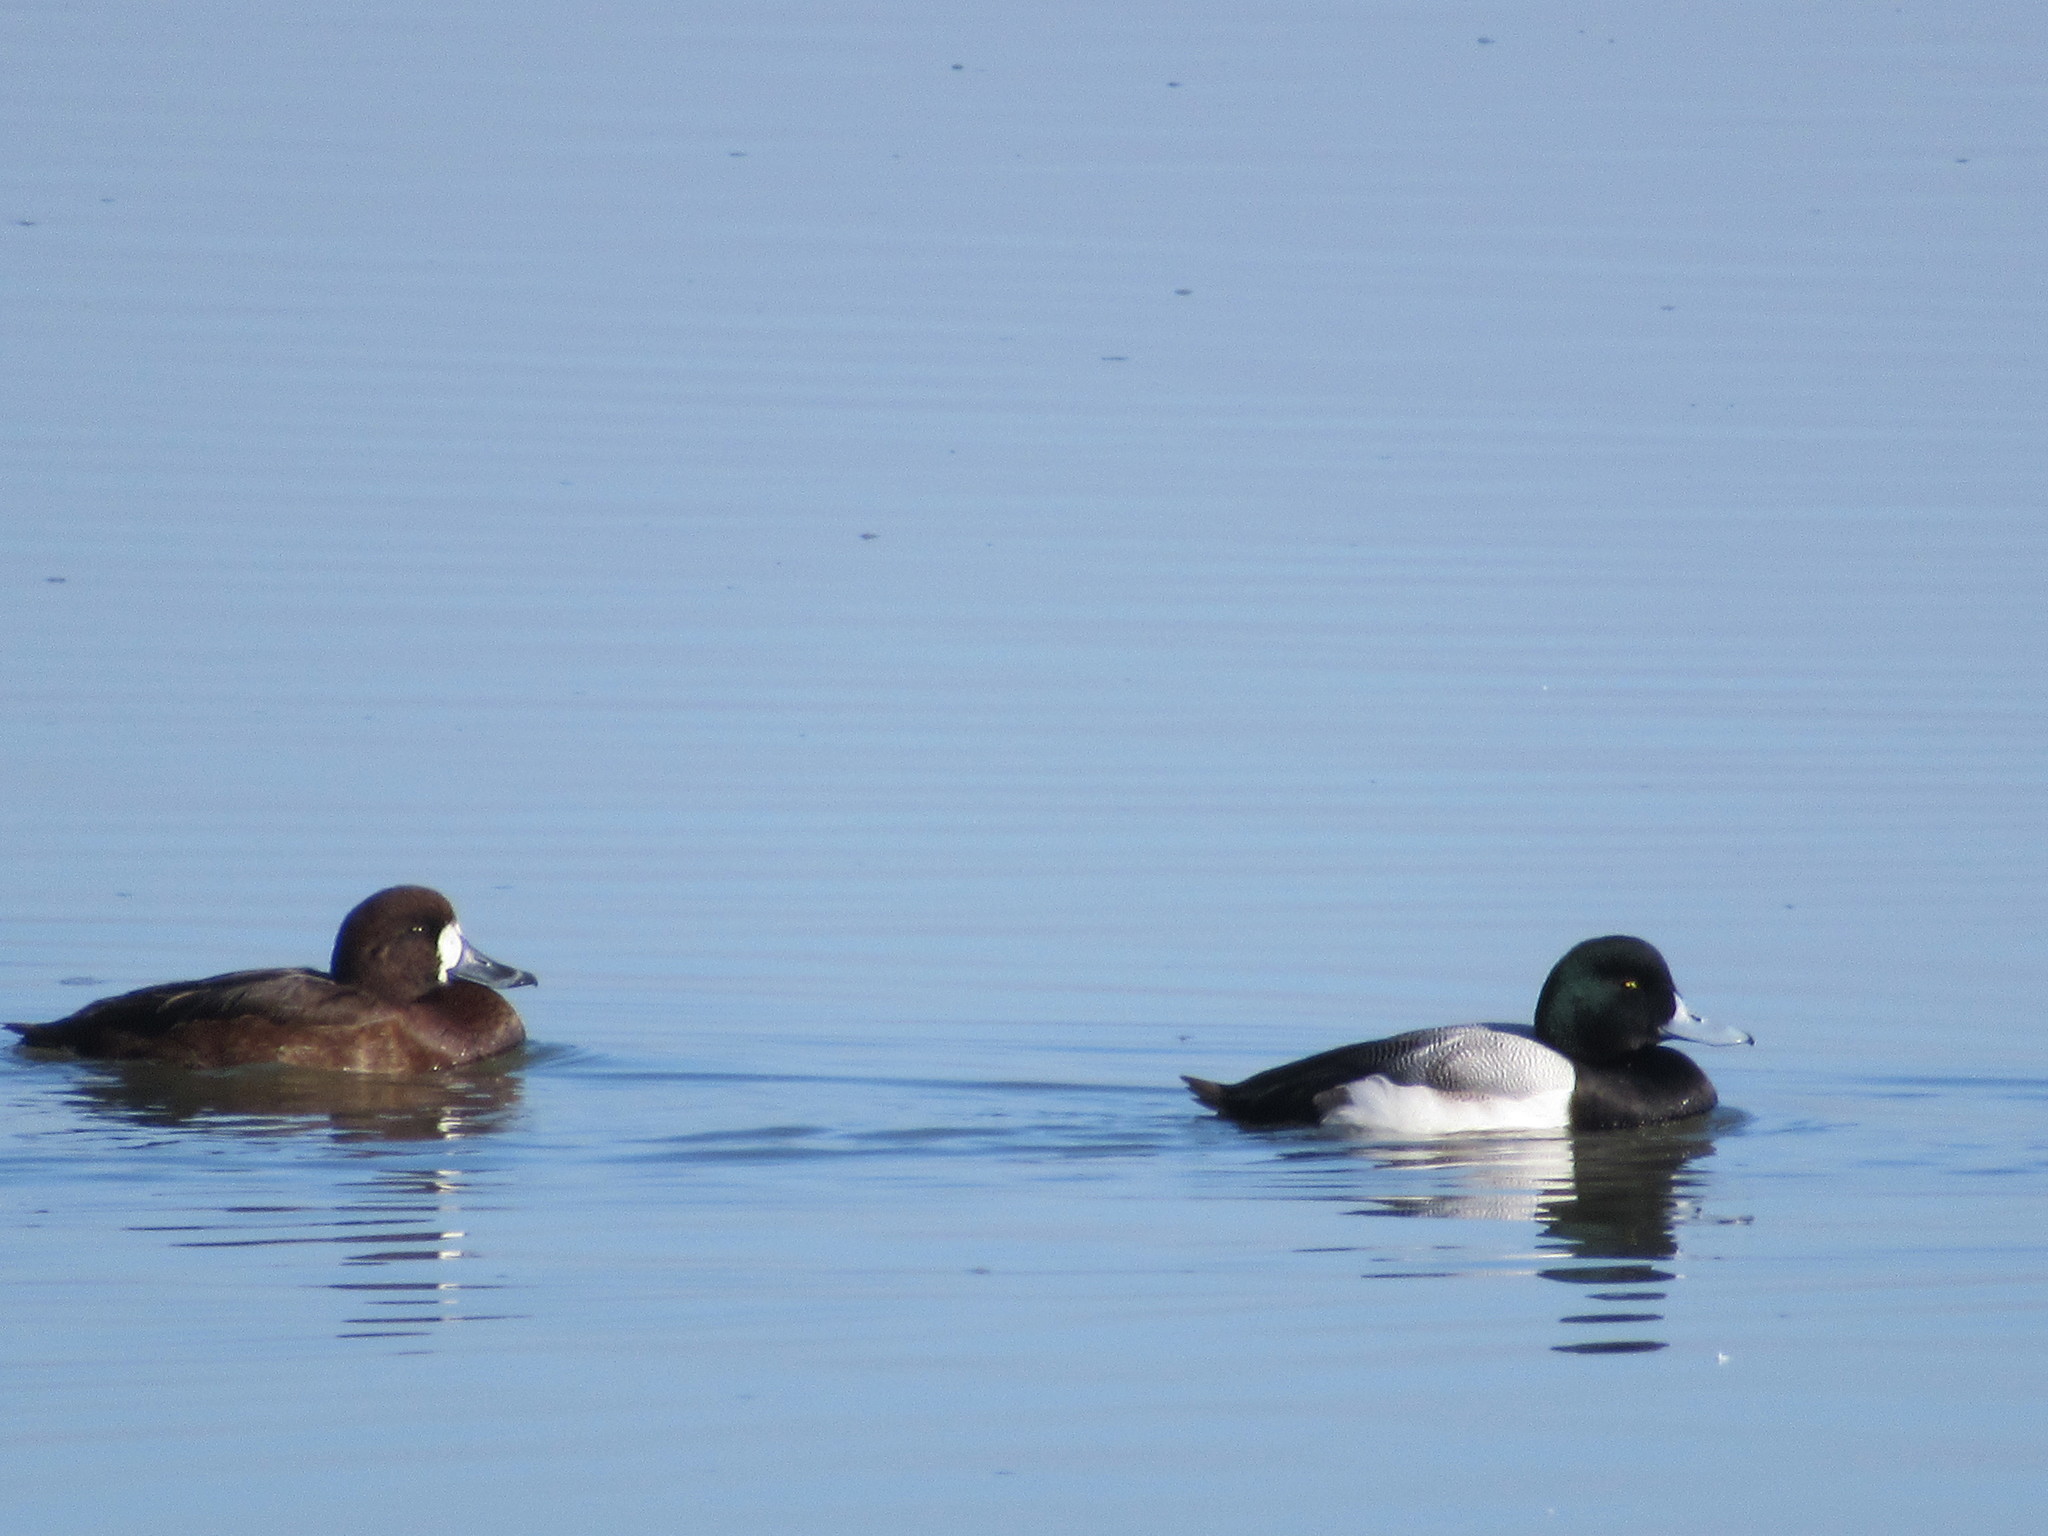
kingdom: Animalia
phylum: Chordata
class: Aves
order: Anseriformes
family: Anatidae
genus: Aythya
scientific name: Aythya marila
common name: Greater scaup
